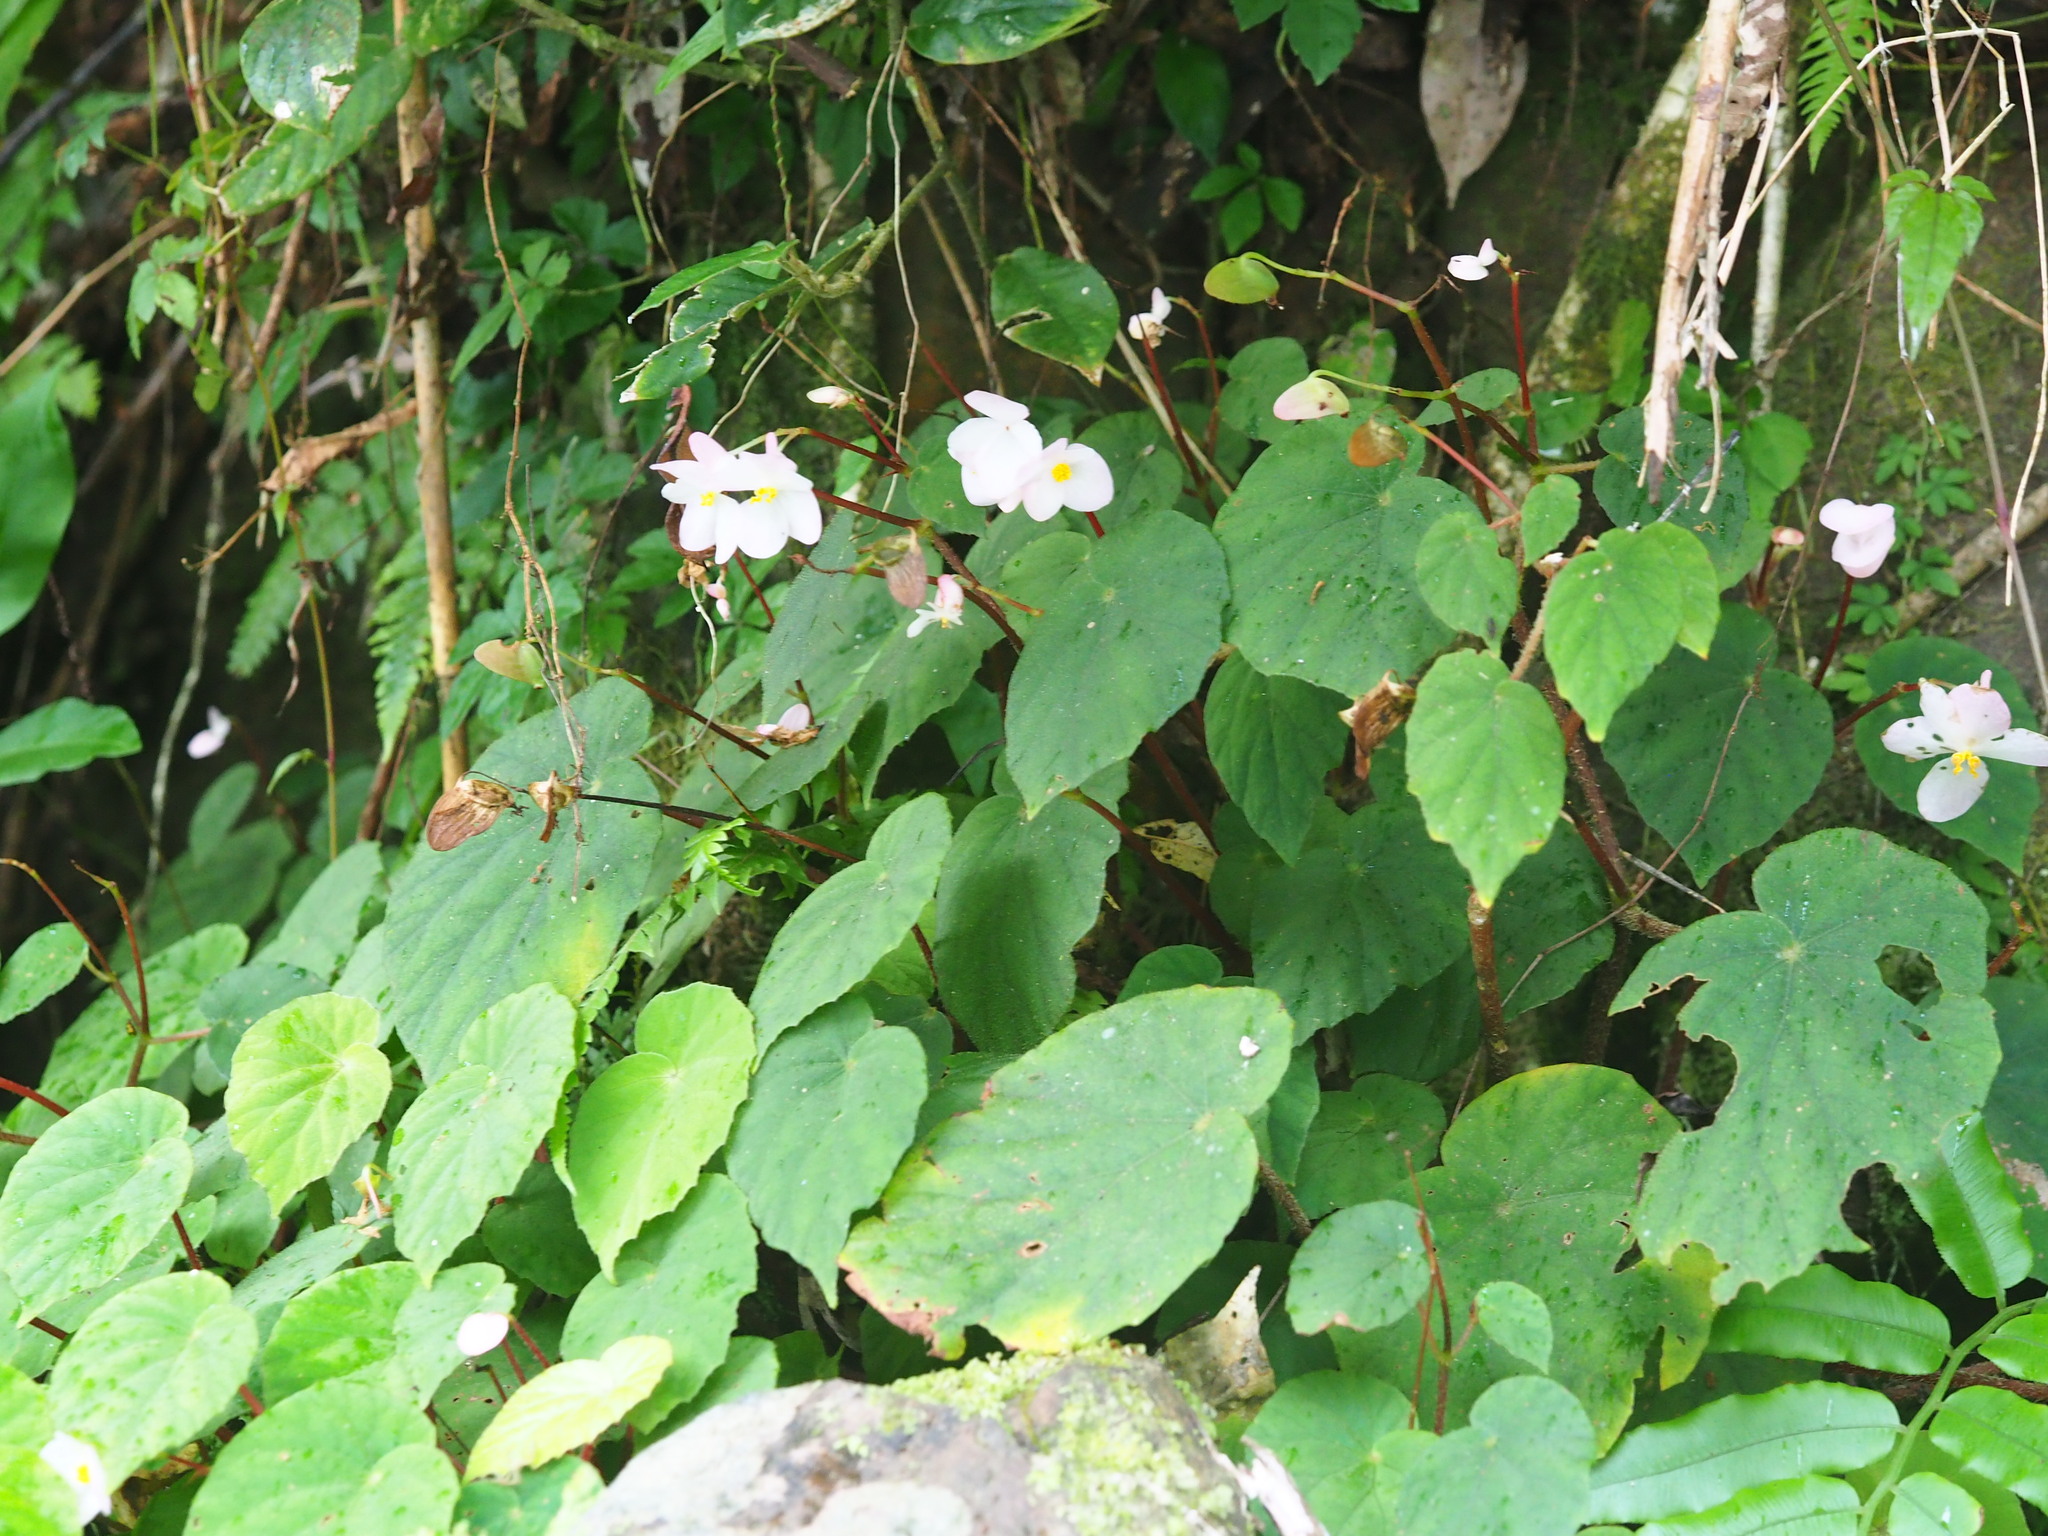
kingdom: Plantae
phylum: Tracheophyta
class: Magnoliopsida
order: Cucurbitales
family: Begoniaceae
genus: Begonia
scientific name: Begonia pinglinensis
